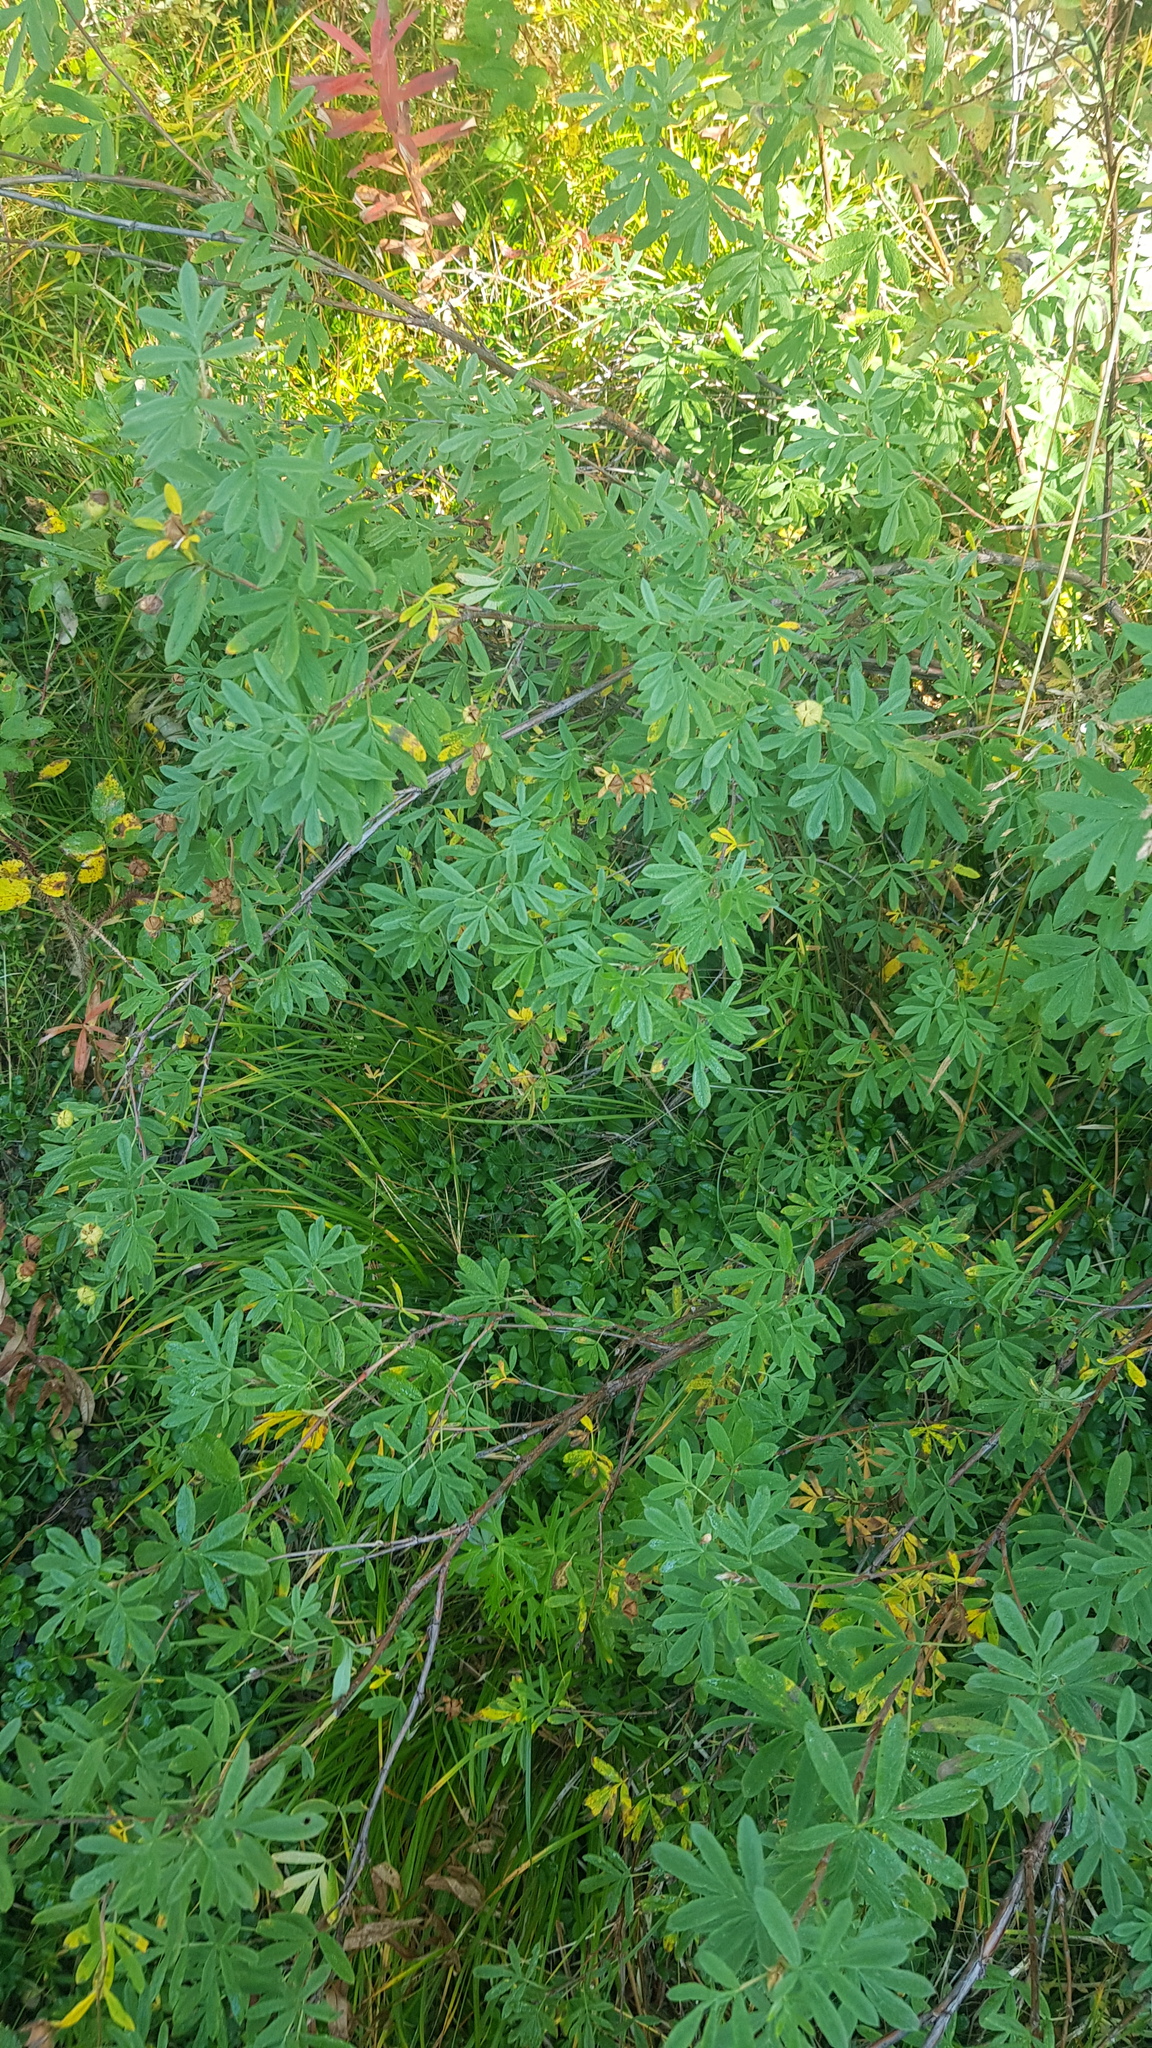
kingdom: Plantae
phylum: Tracheophyta
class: Magnoliopsida
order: Rosales
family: Rosaceae
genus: Dasiphora
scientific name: Dasiphora fruticosa
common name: Shrubby cinquefoil
